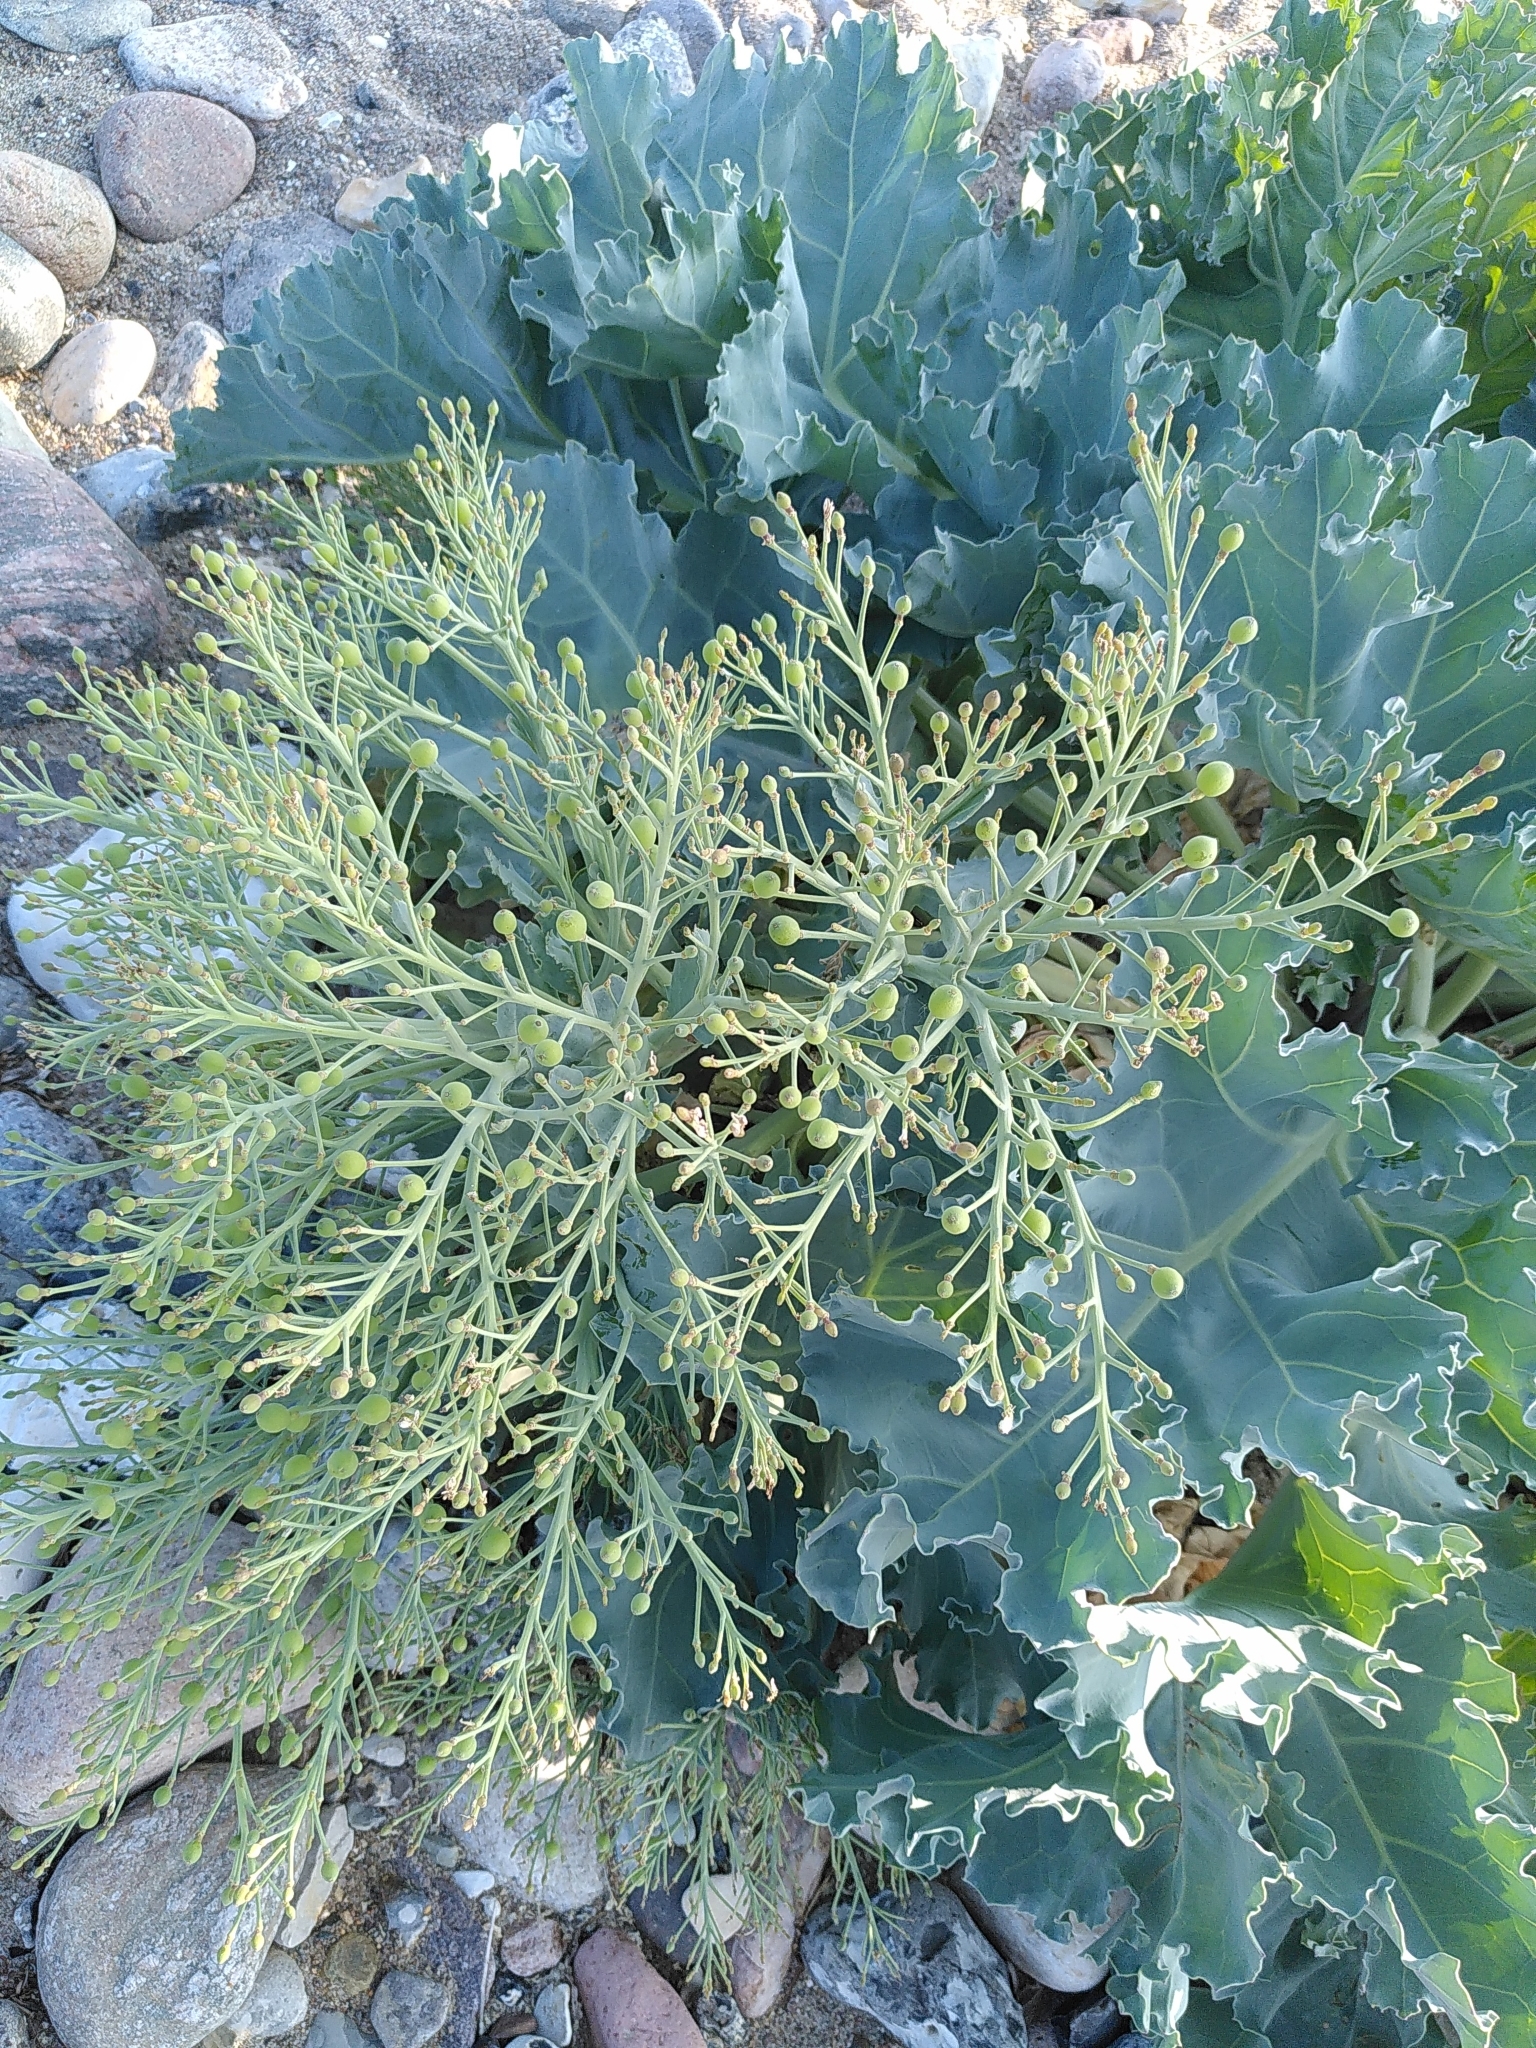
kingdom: Plantae
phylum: Tracheophyta
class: Magnoliopsida
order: Brassicales
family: Brassicaceae
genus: Crambe
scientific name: Crambe maritima
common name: Sea-kale
